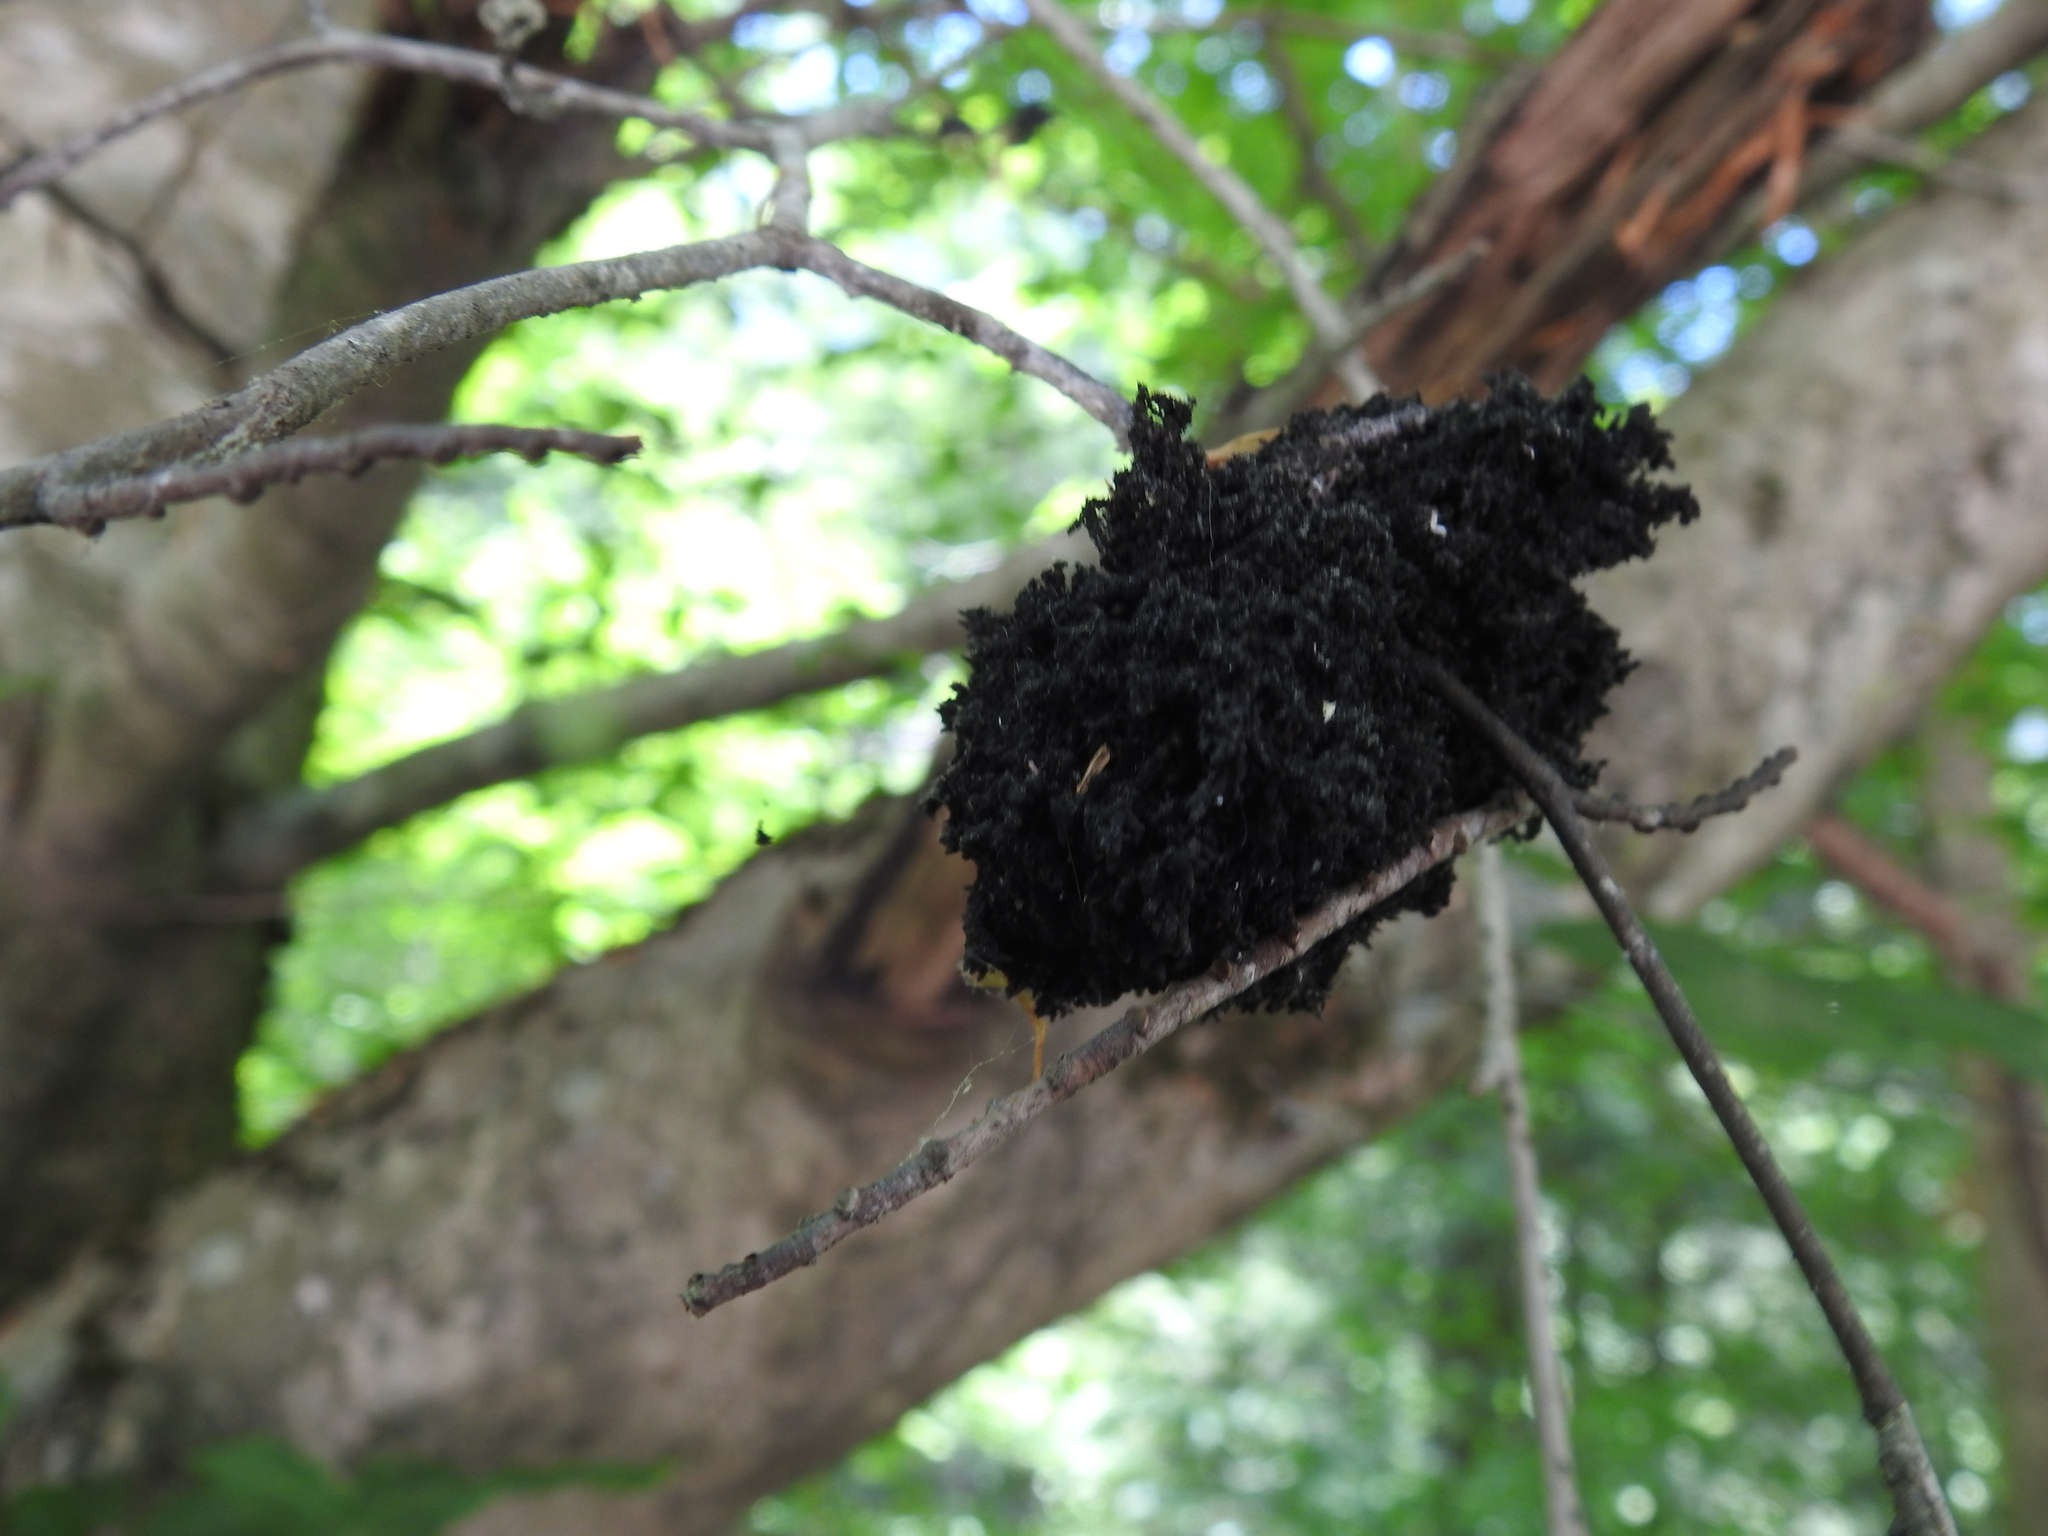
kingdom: Fungi
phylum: Ascomycota
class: Dothideomycetes
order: Capnodiales
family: Capnodiaceae
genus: Scorias
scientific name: Scorias spongiosa
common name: Black sooty mold
